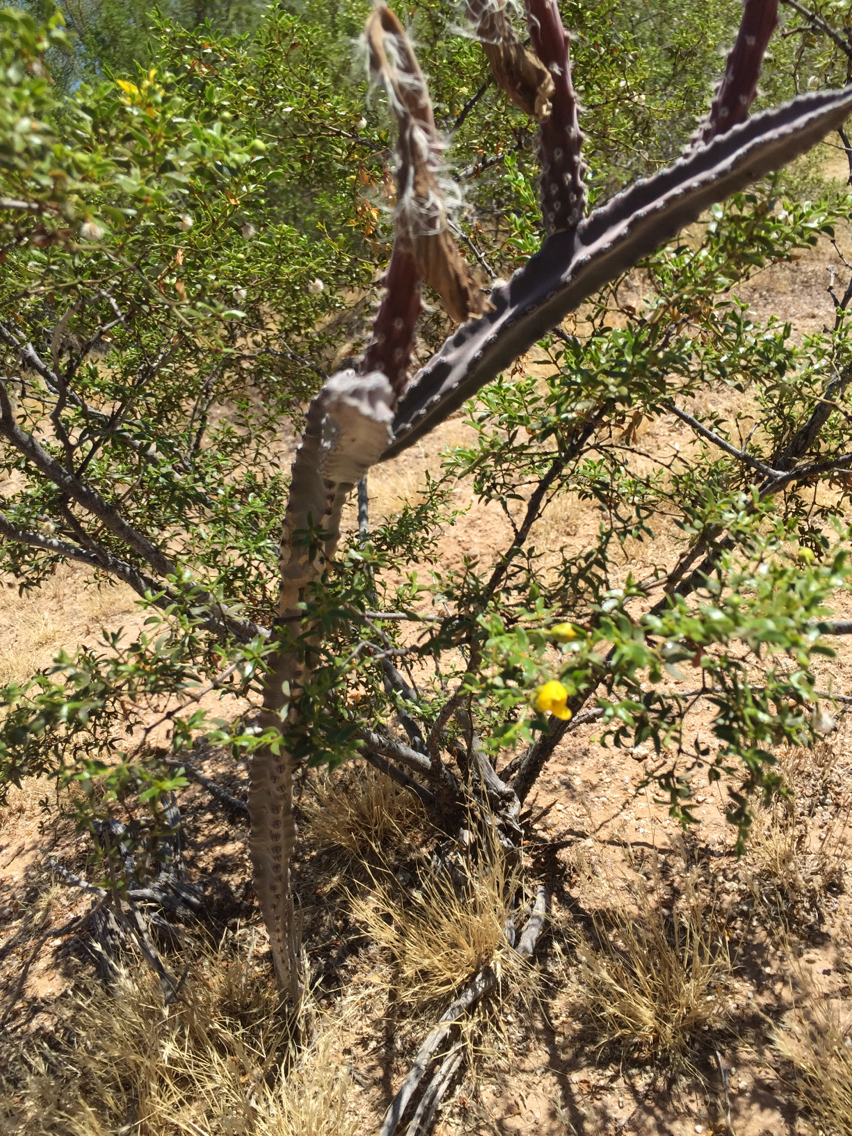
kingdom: Plantae
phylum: Tracheophyta
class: Magnoliopsida
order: Caryophyllales
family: Cactaceae
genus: Peniocereus
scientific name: Peniocereus greggii
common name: Desert night-blooming cereus
